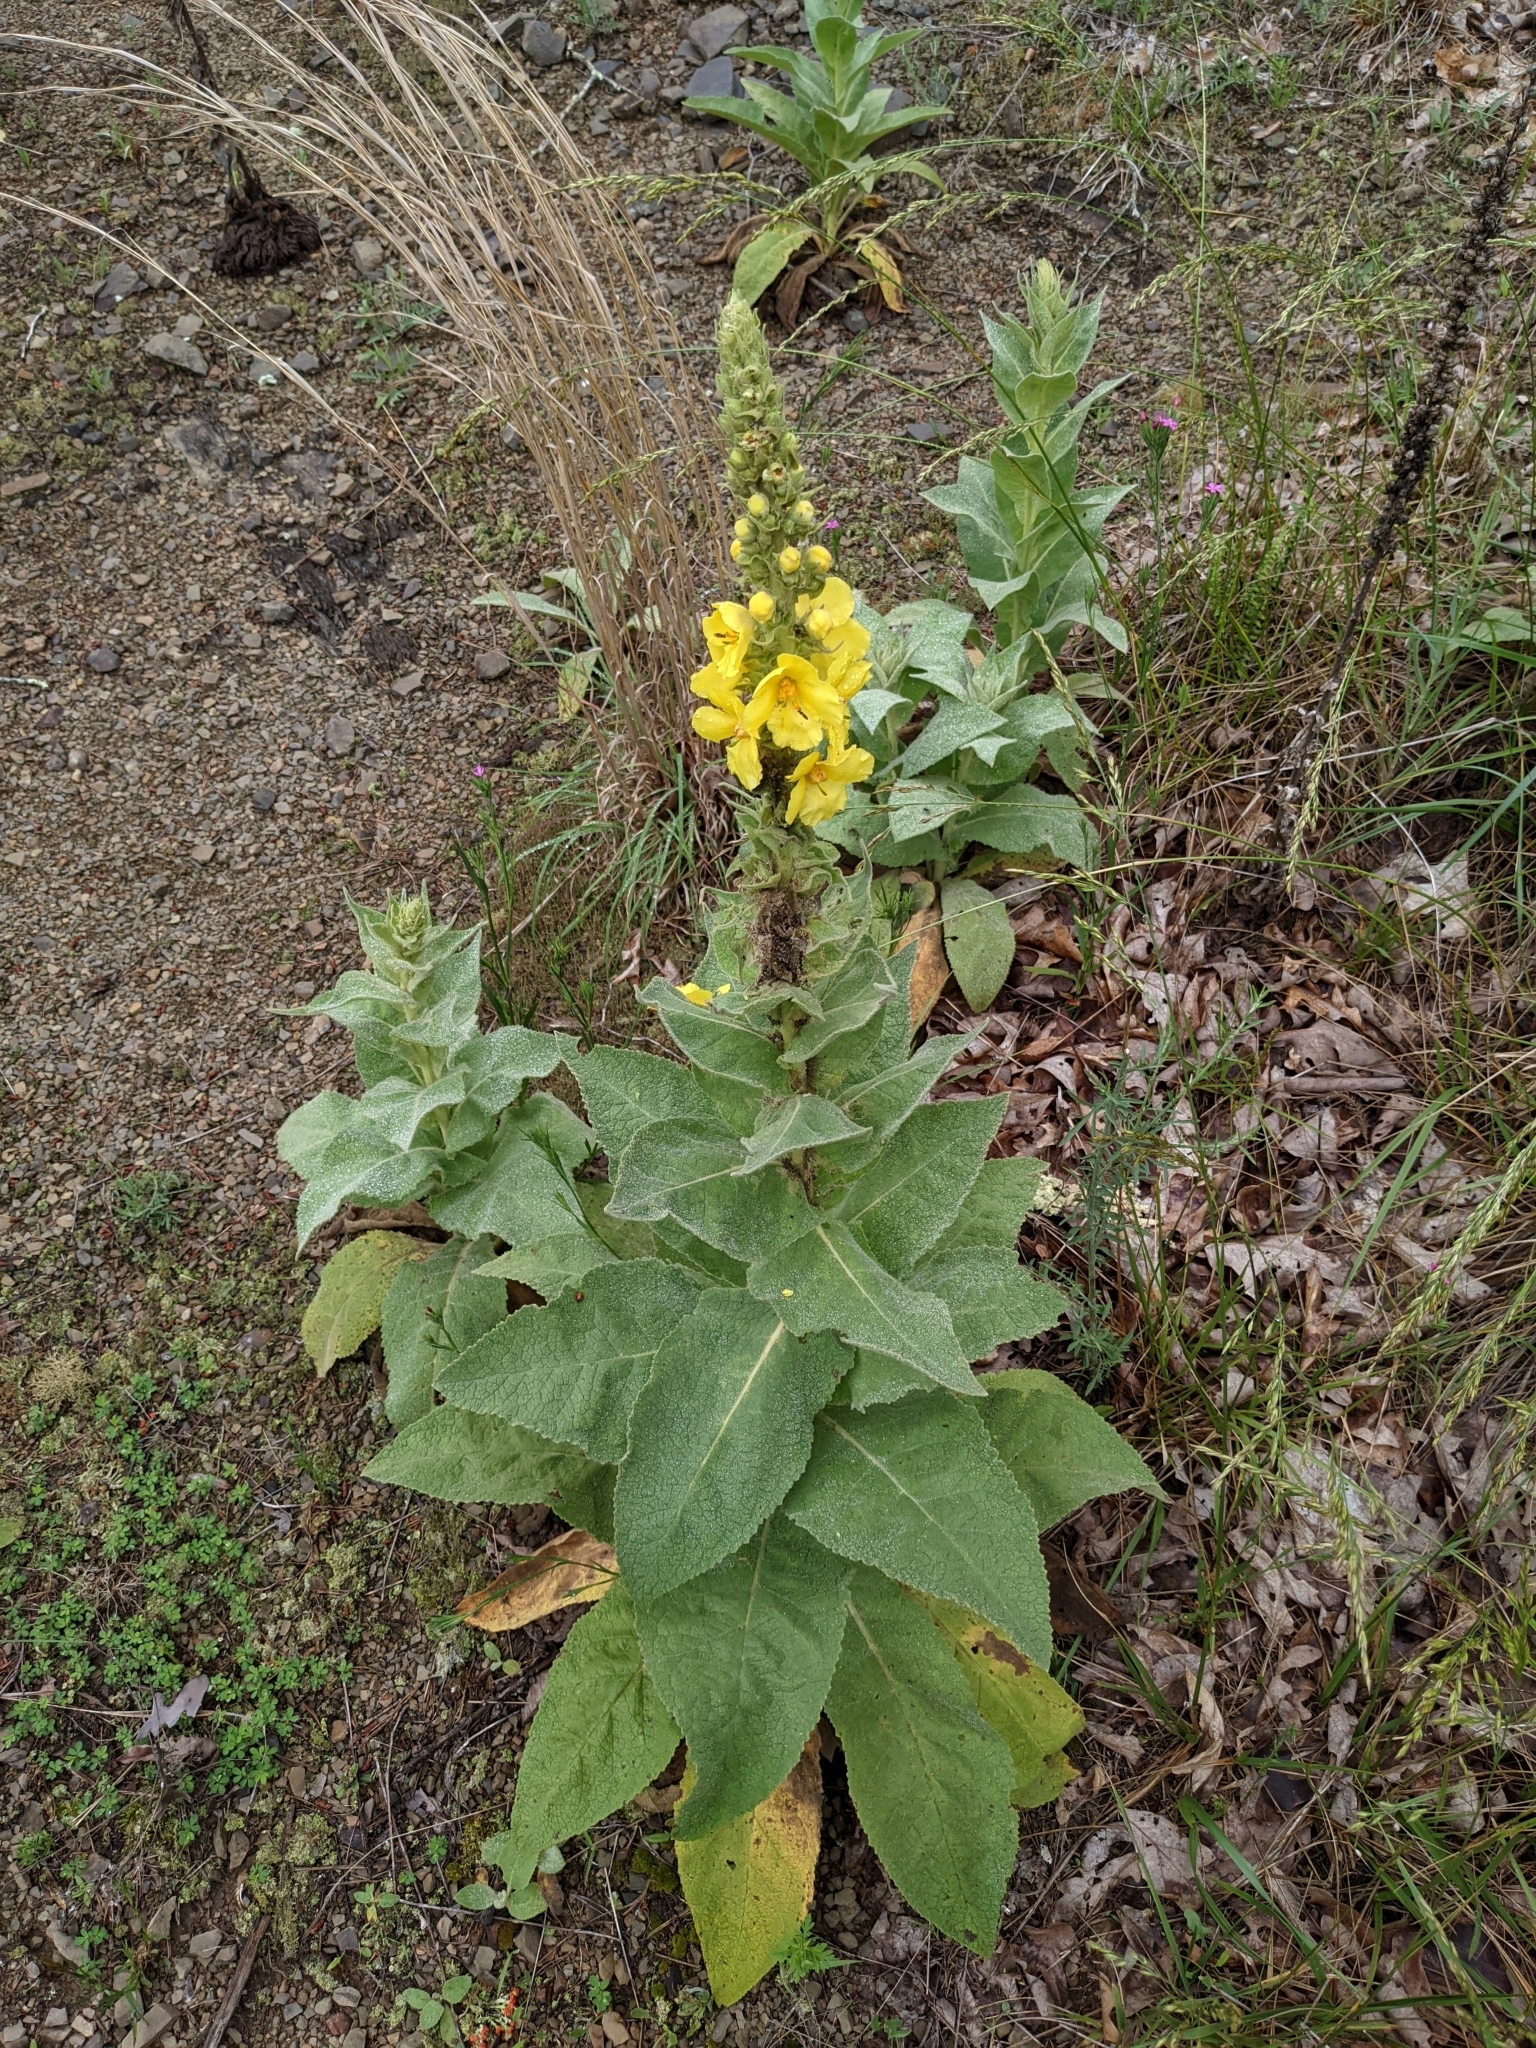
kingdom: Plantae
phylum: Tracheophyta
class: Magnoliopsida
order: Lamiales
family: Scrophulariaceae
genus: Verbascum
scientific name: Verbascum thapsus
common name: Common mullein
